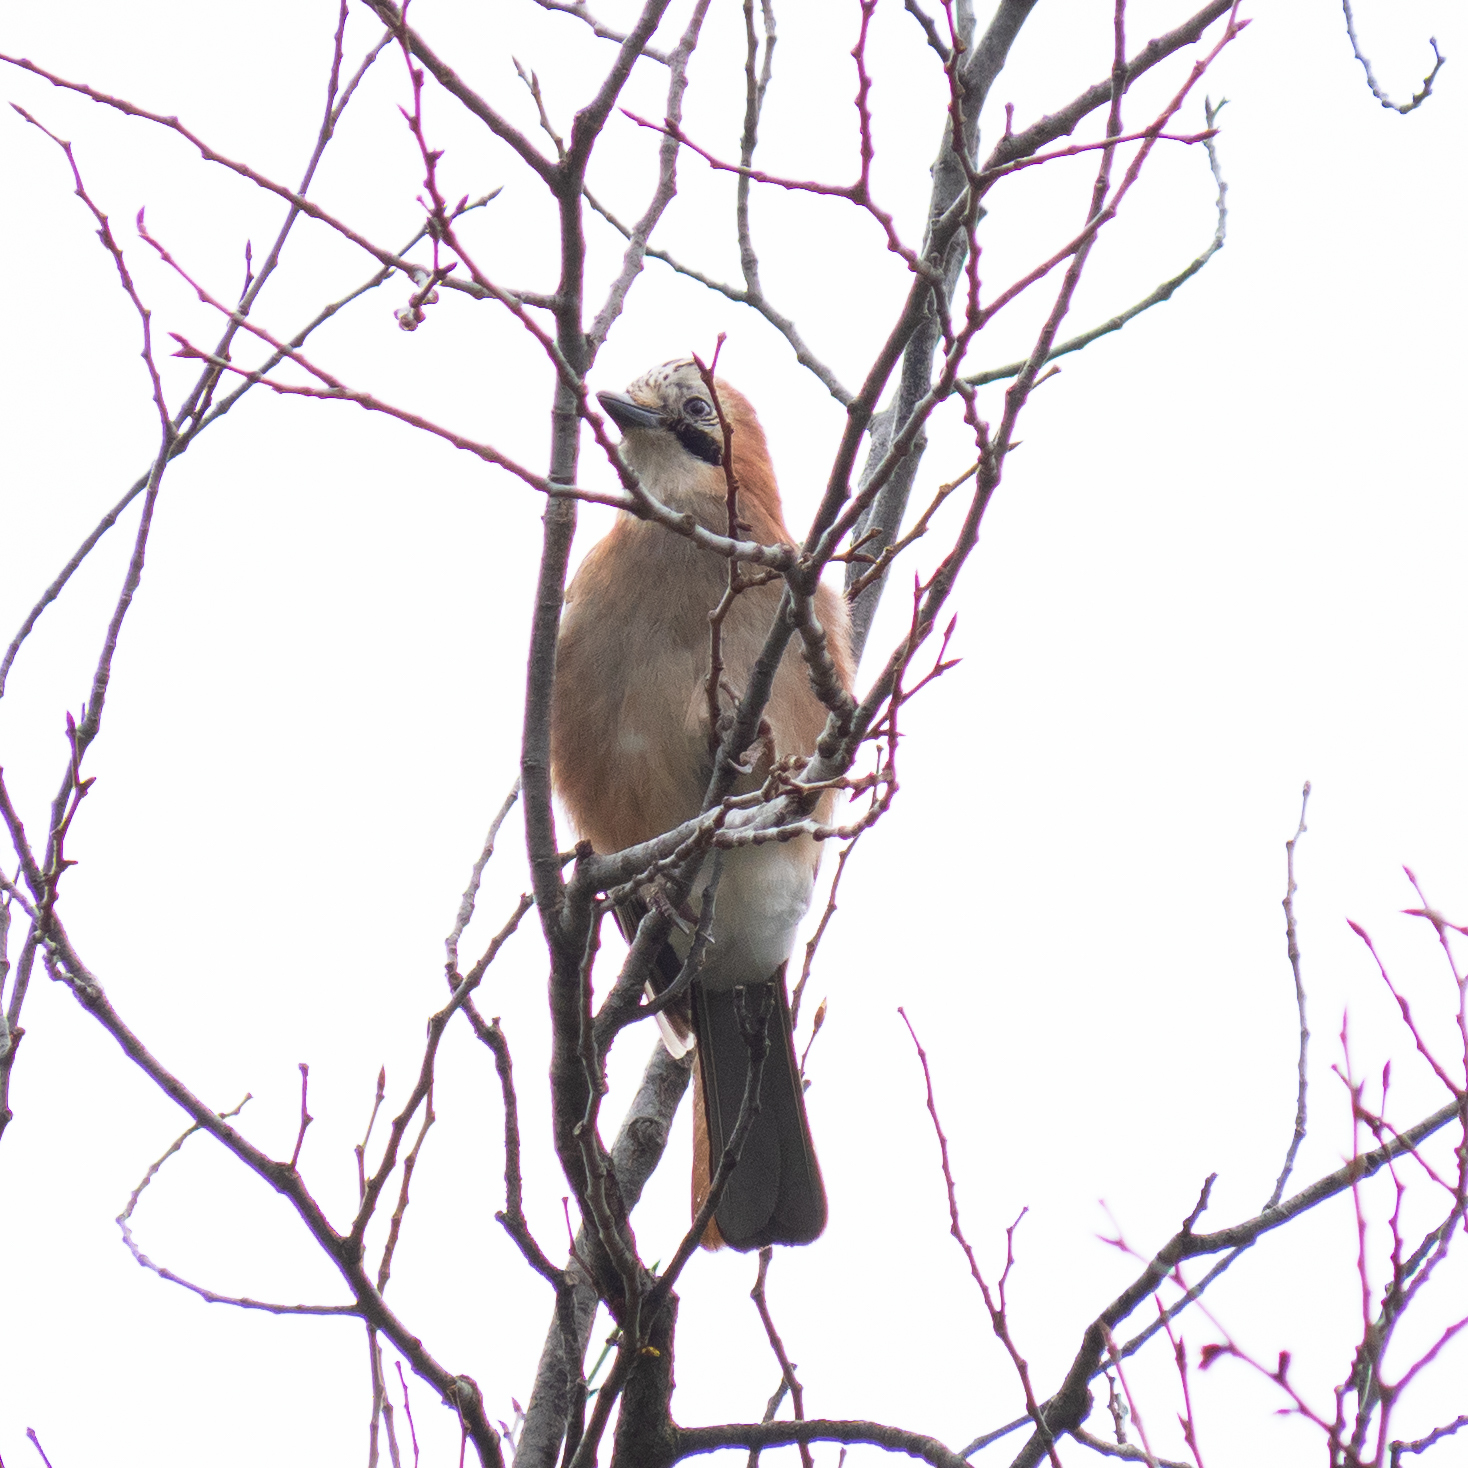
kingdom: Animalia
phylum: Chordata
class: Aves
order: Passeriformes
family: Corvidae
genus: Garrulus
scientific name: Garrulus glandarius
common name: Eurasian jay
